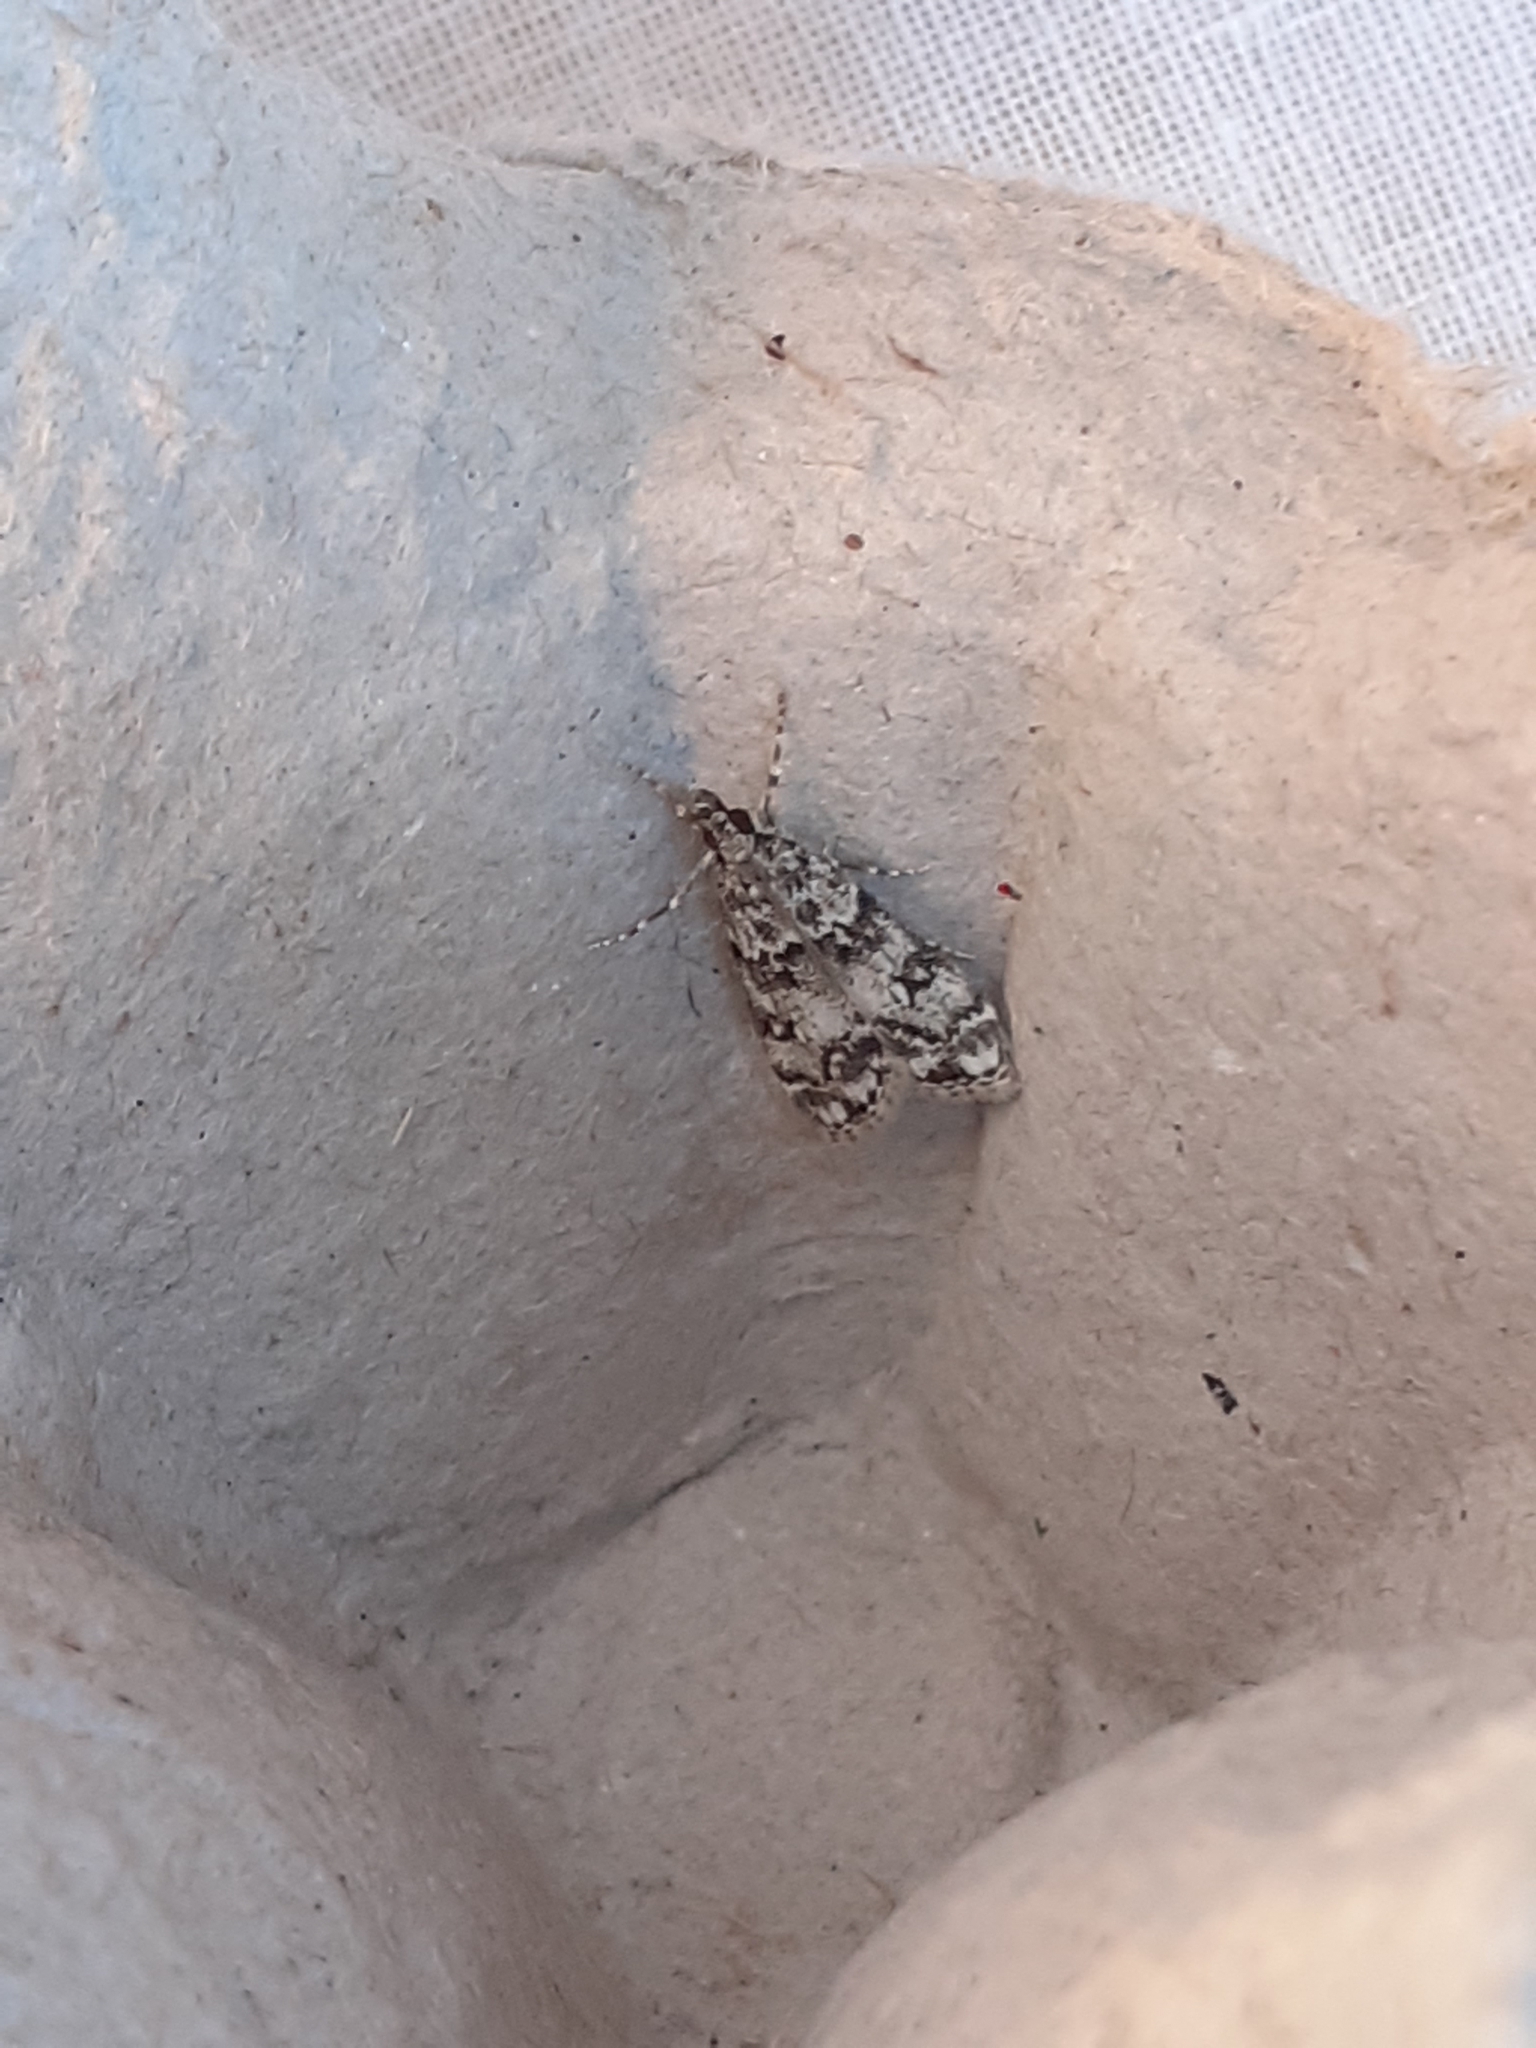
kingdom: Animalia
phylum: Arthropoda
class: Insecta
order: Lepidoptera
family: Crambidae
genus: Eudonia
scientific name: Eudonia lacustrata
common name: Little grey
